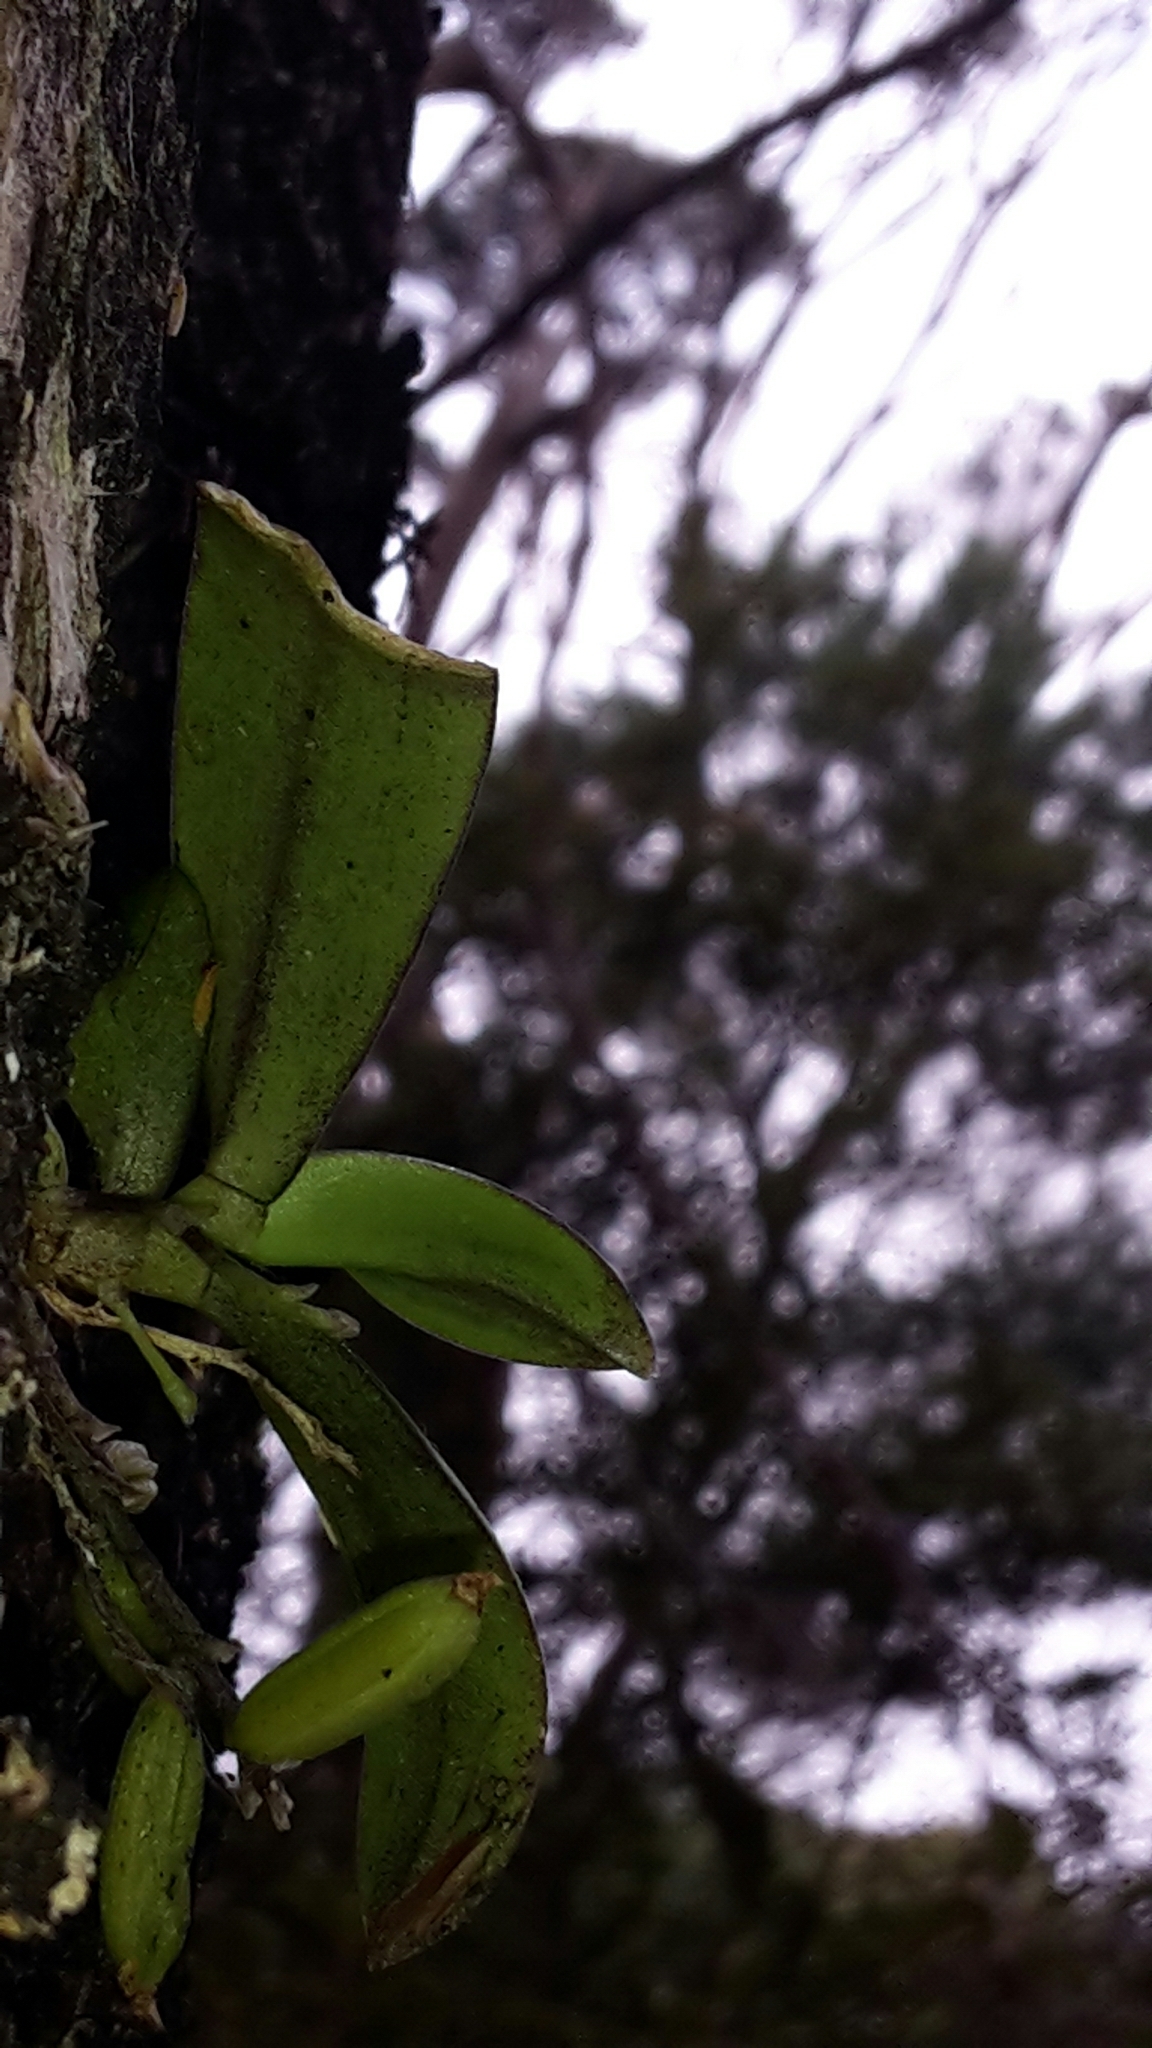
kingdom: Plantae
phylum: Tracheophyta
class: Liliopsida
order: Asparagales
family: Orchidaceae
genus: Drymoanthus
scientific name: Drymoanthus adversus
